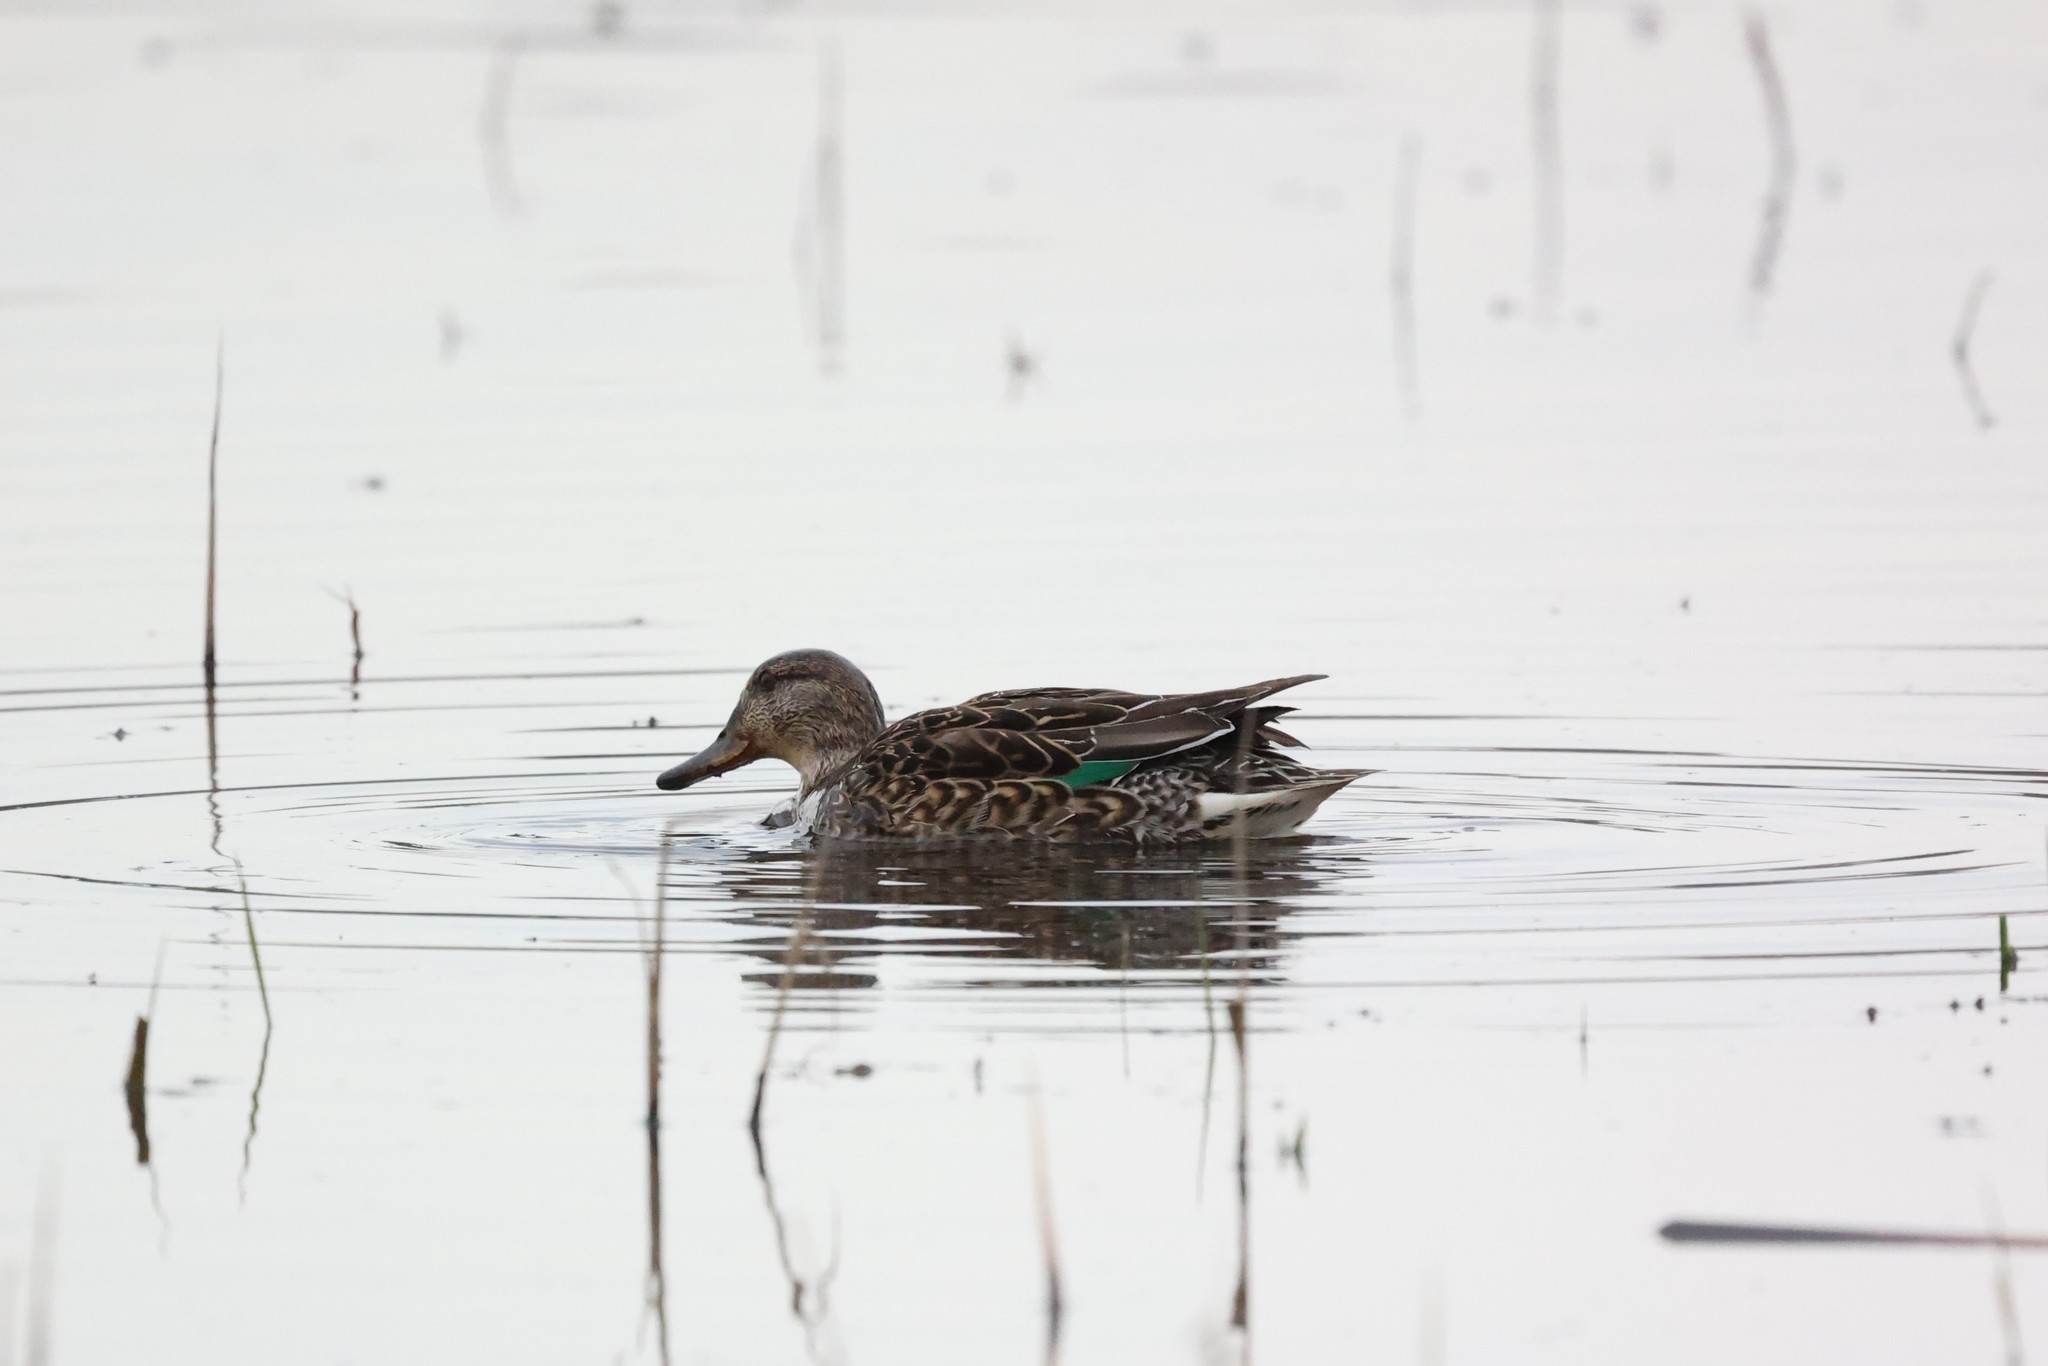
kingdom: Animalia
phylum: Chordata
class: Aves
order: Anseriformes
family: Anatidae
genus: Anas
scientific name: Anas crecca
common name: Eurasian teal
